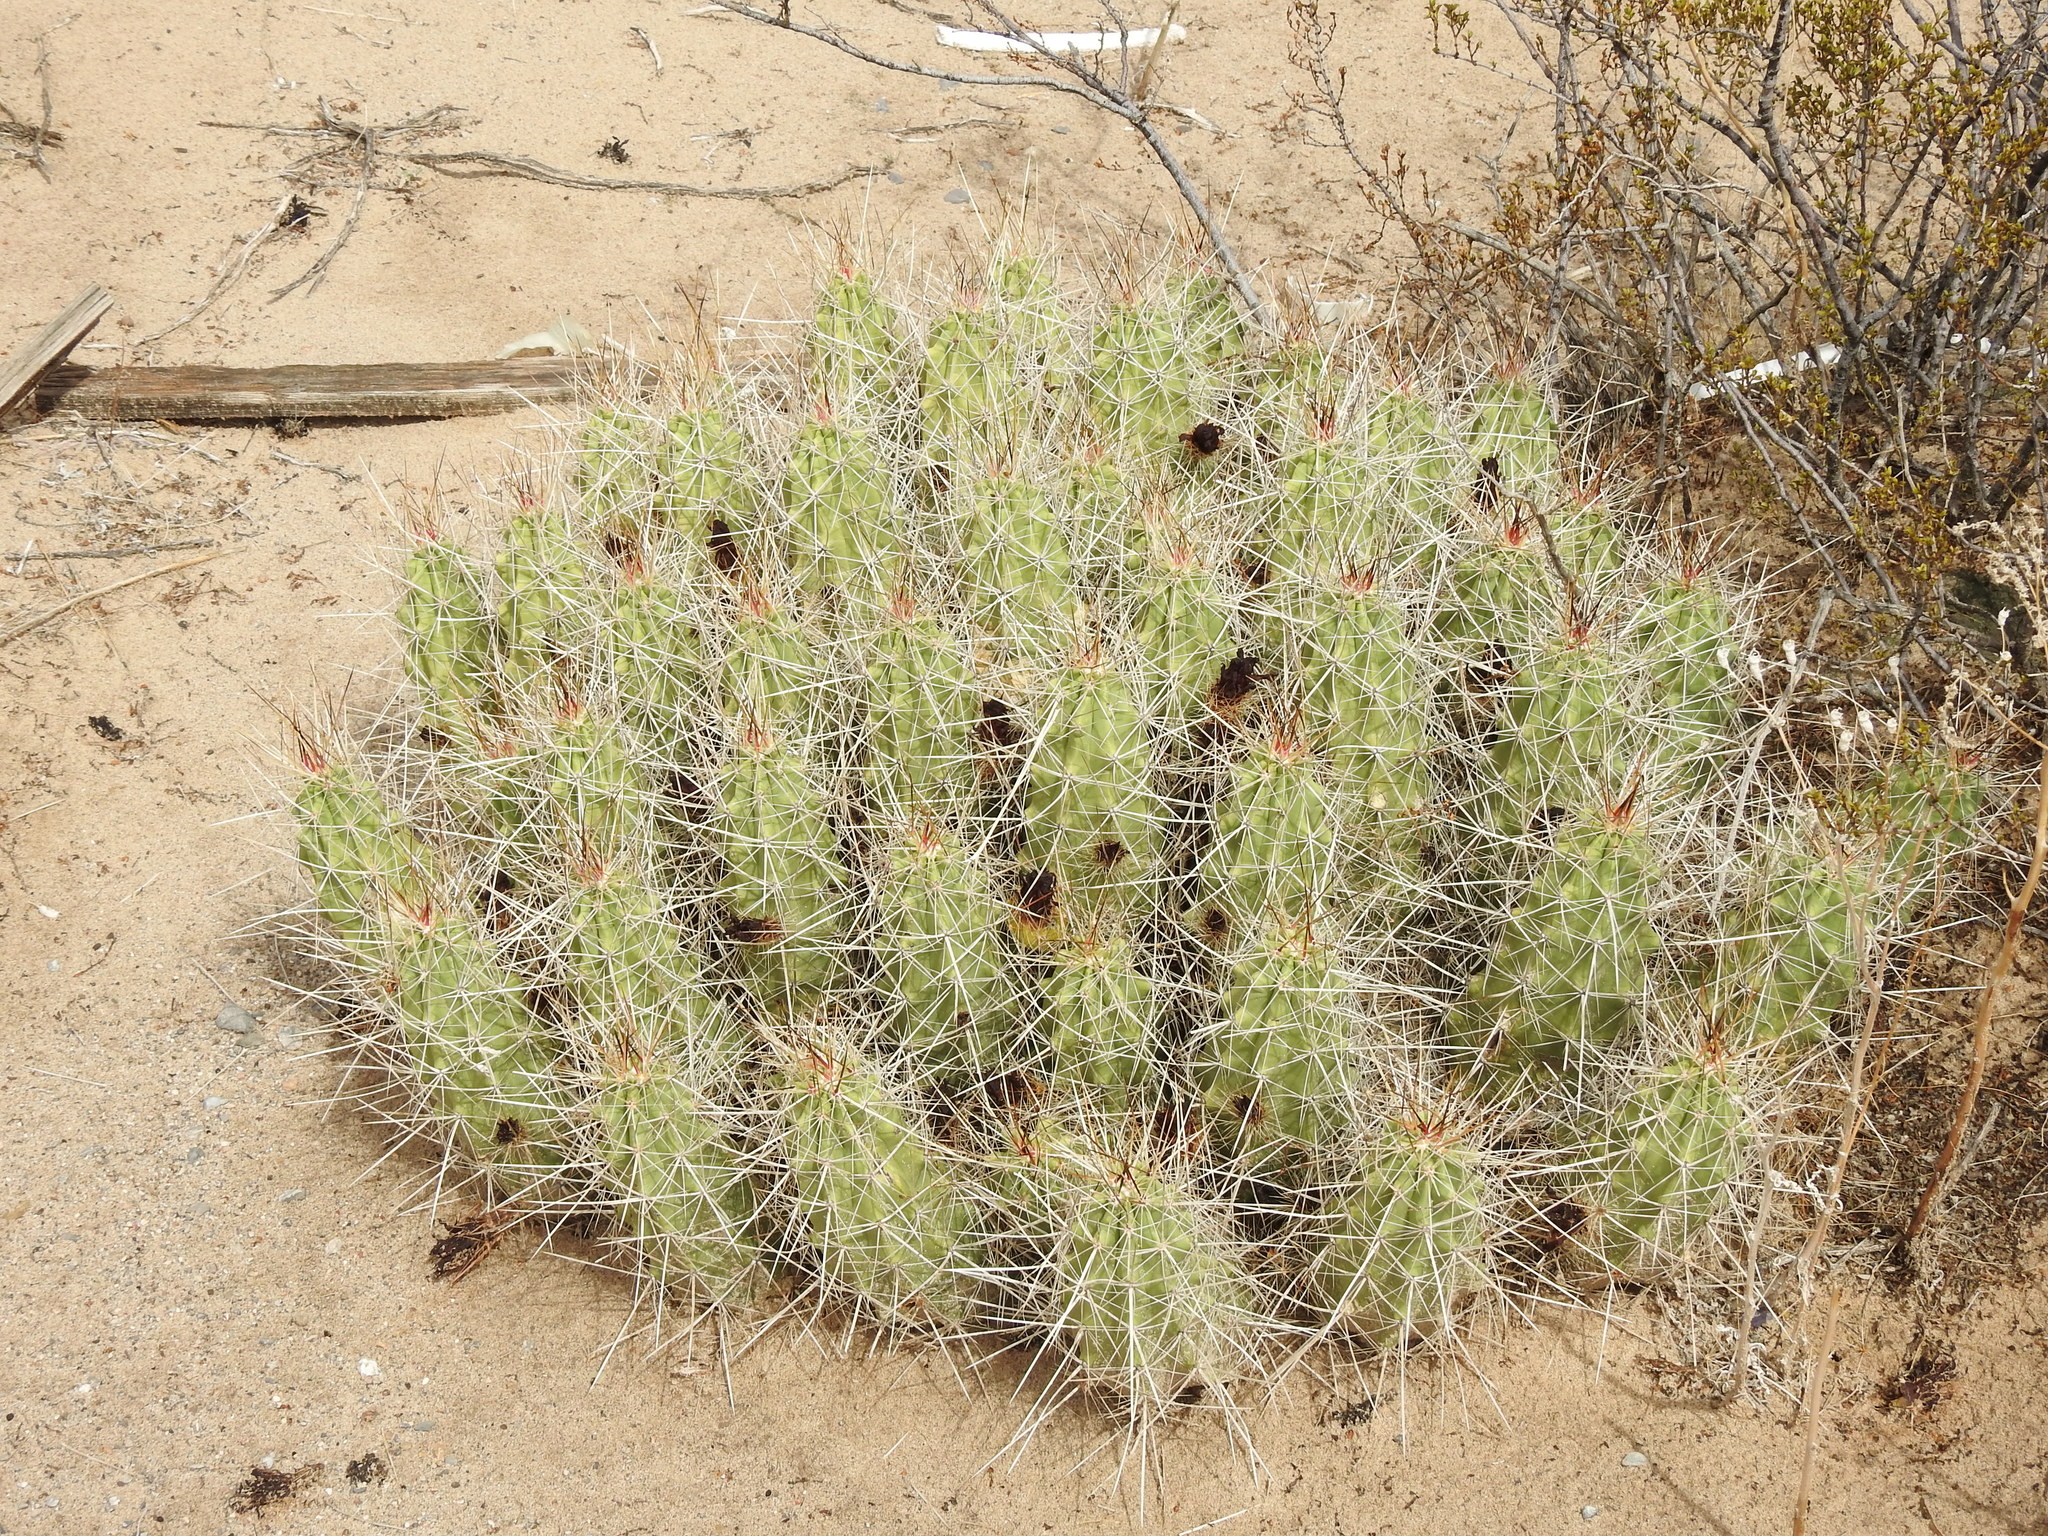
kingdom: Plantae
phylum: Tracheophyta
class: Magnoliopsida
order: Caryophyllales
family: Cactaceae
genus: Echinocereus
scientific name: Echinocereus enneacanthus
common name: Pitaya
